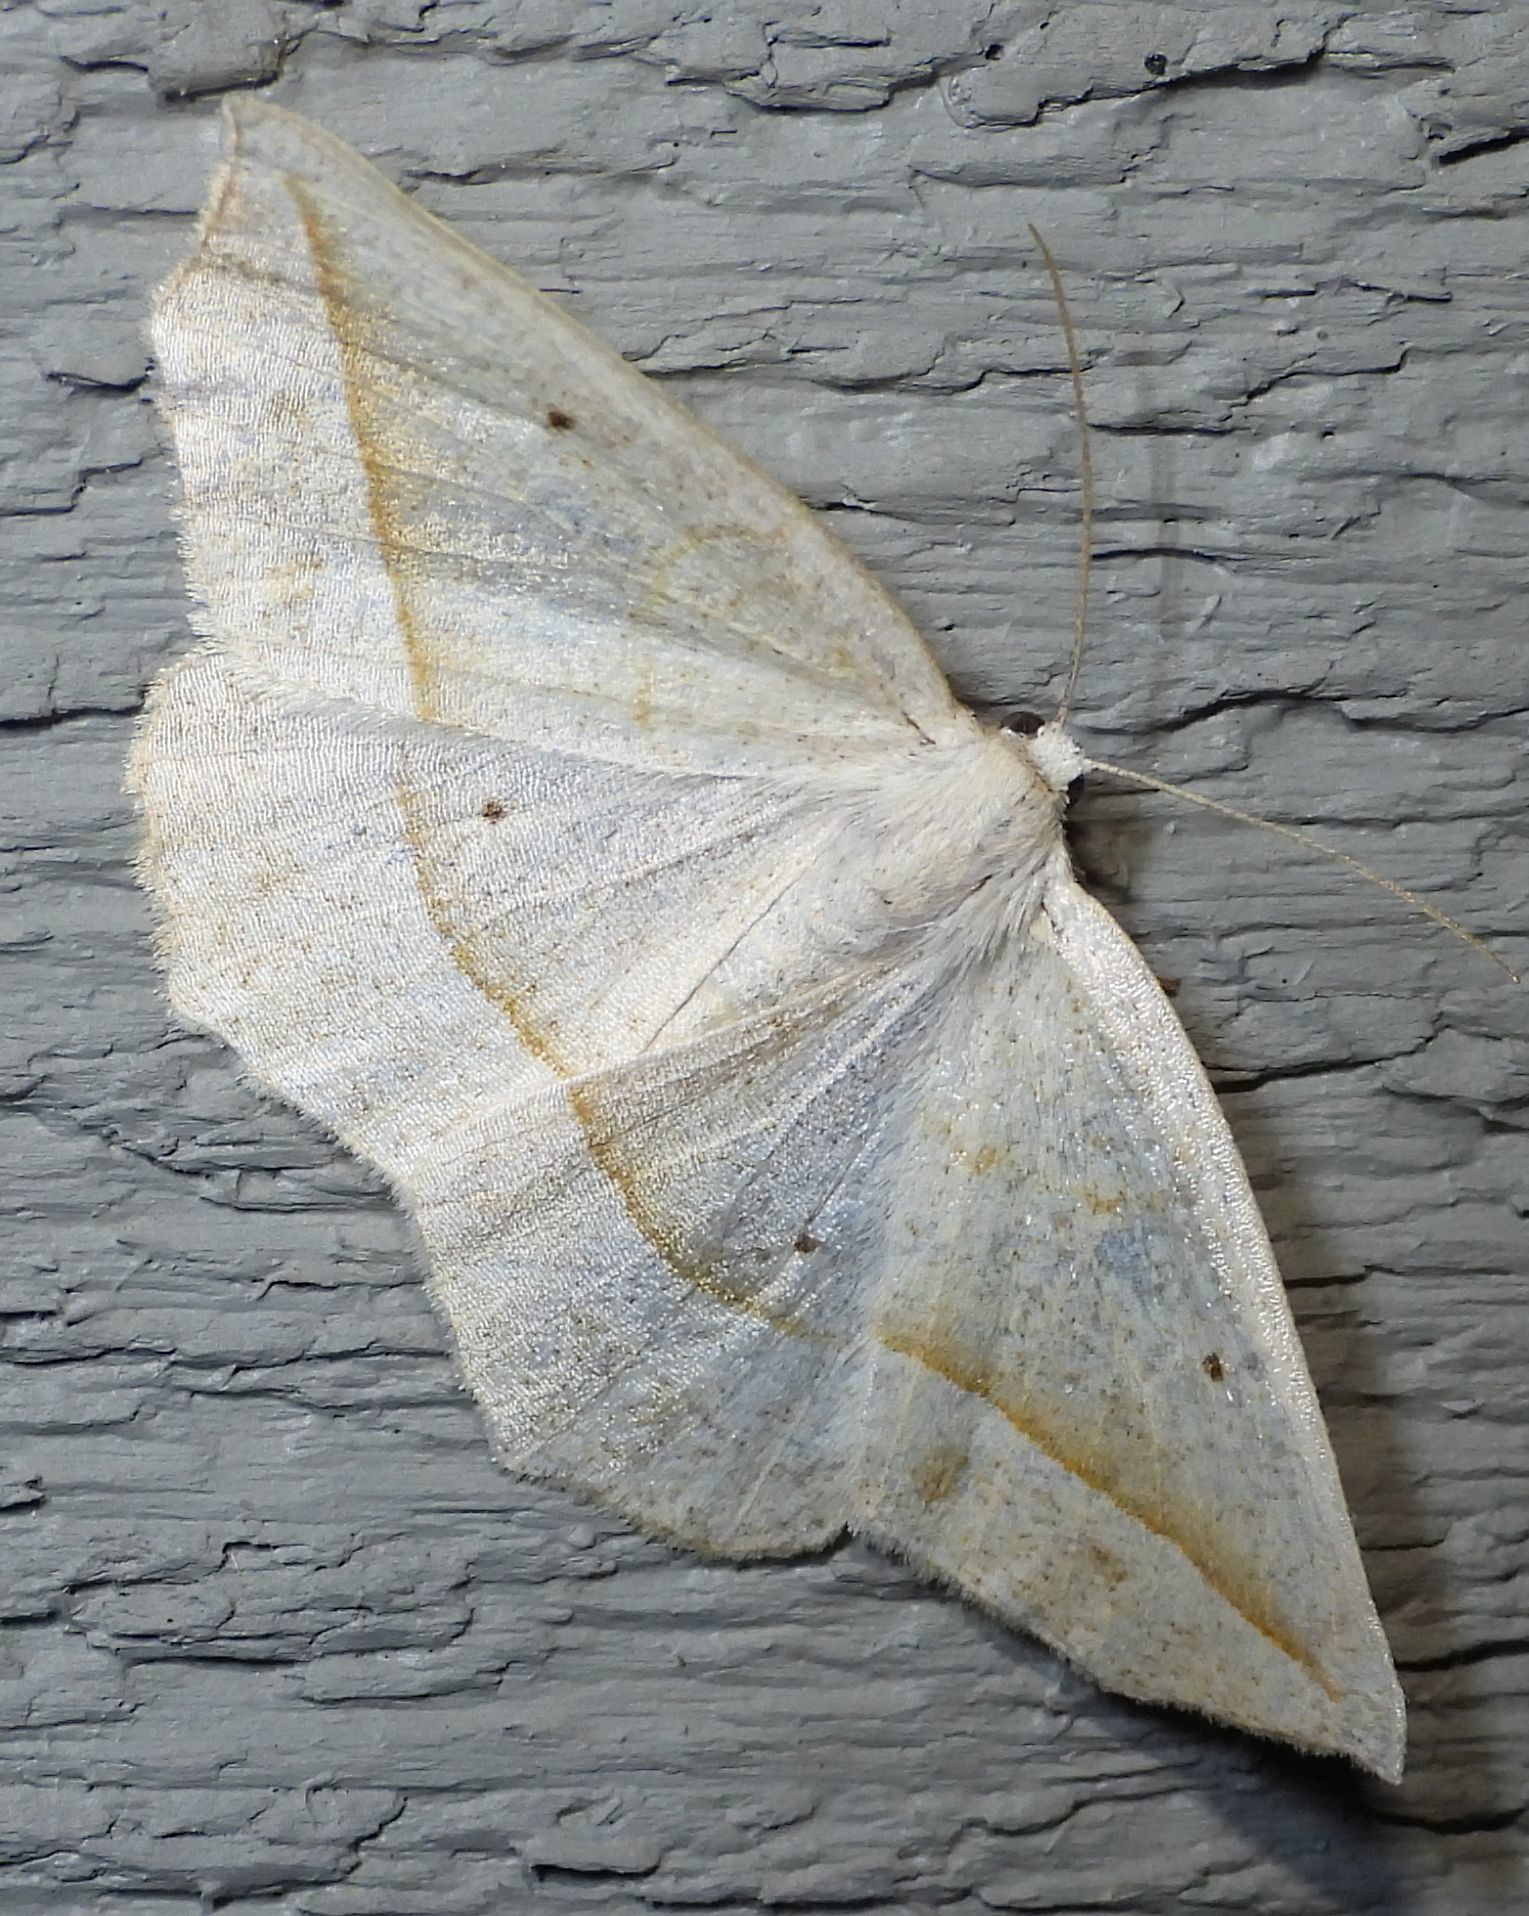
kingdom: Animalia
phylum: Arthropoda
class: Insecta
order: Lepidoptera
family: Geometridae
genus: Eusarca
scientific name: Eusarca confusaria
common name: Confused eusarca
